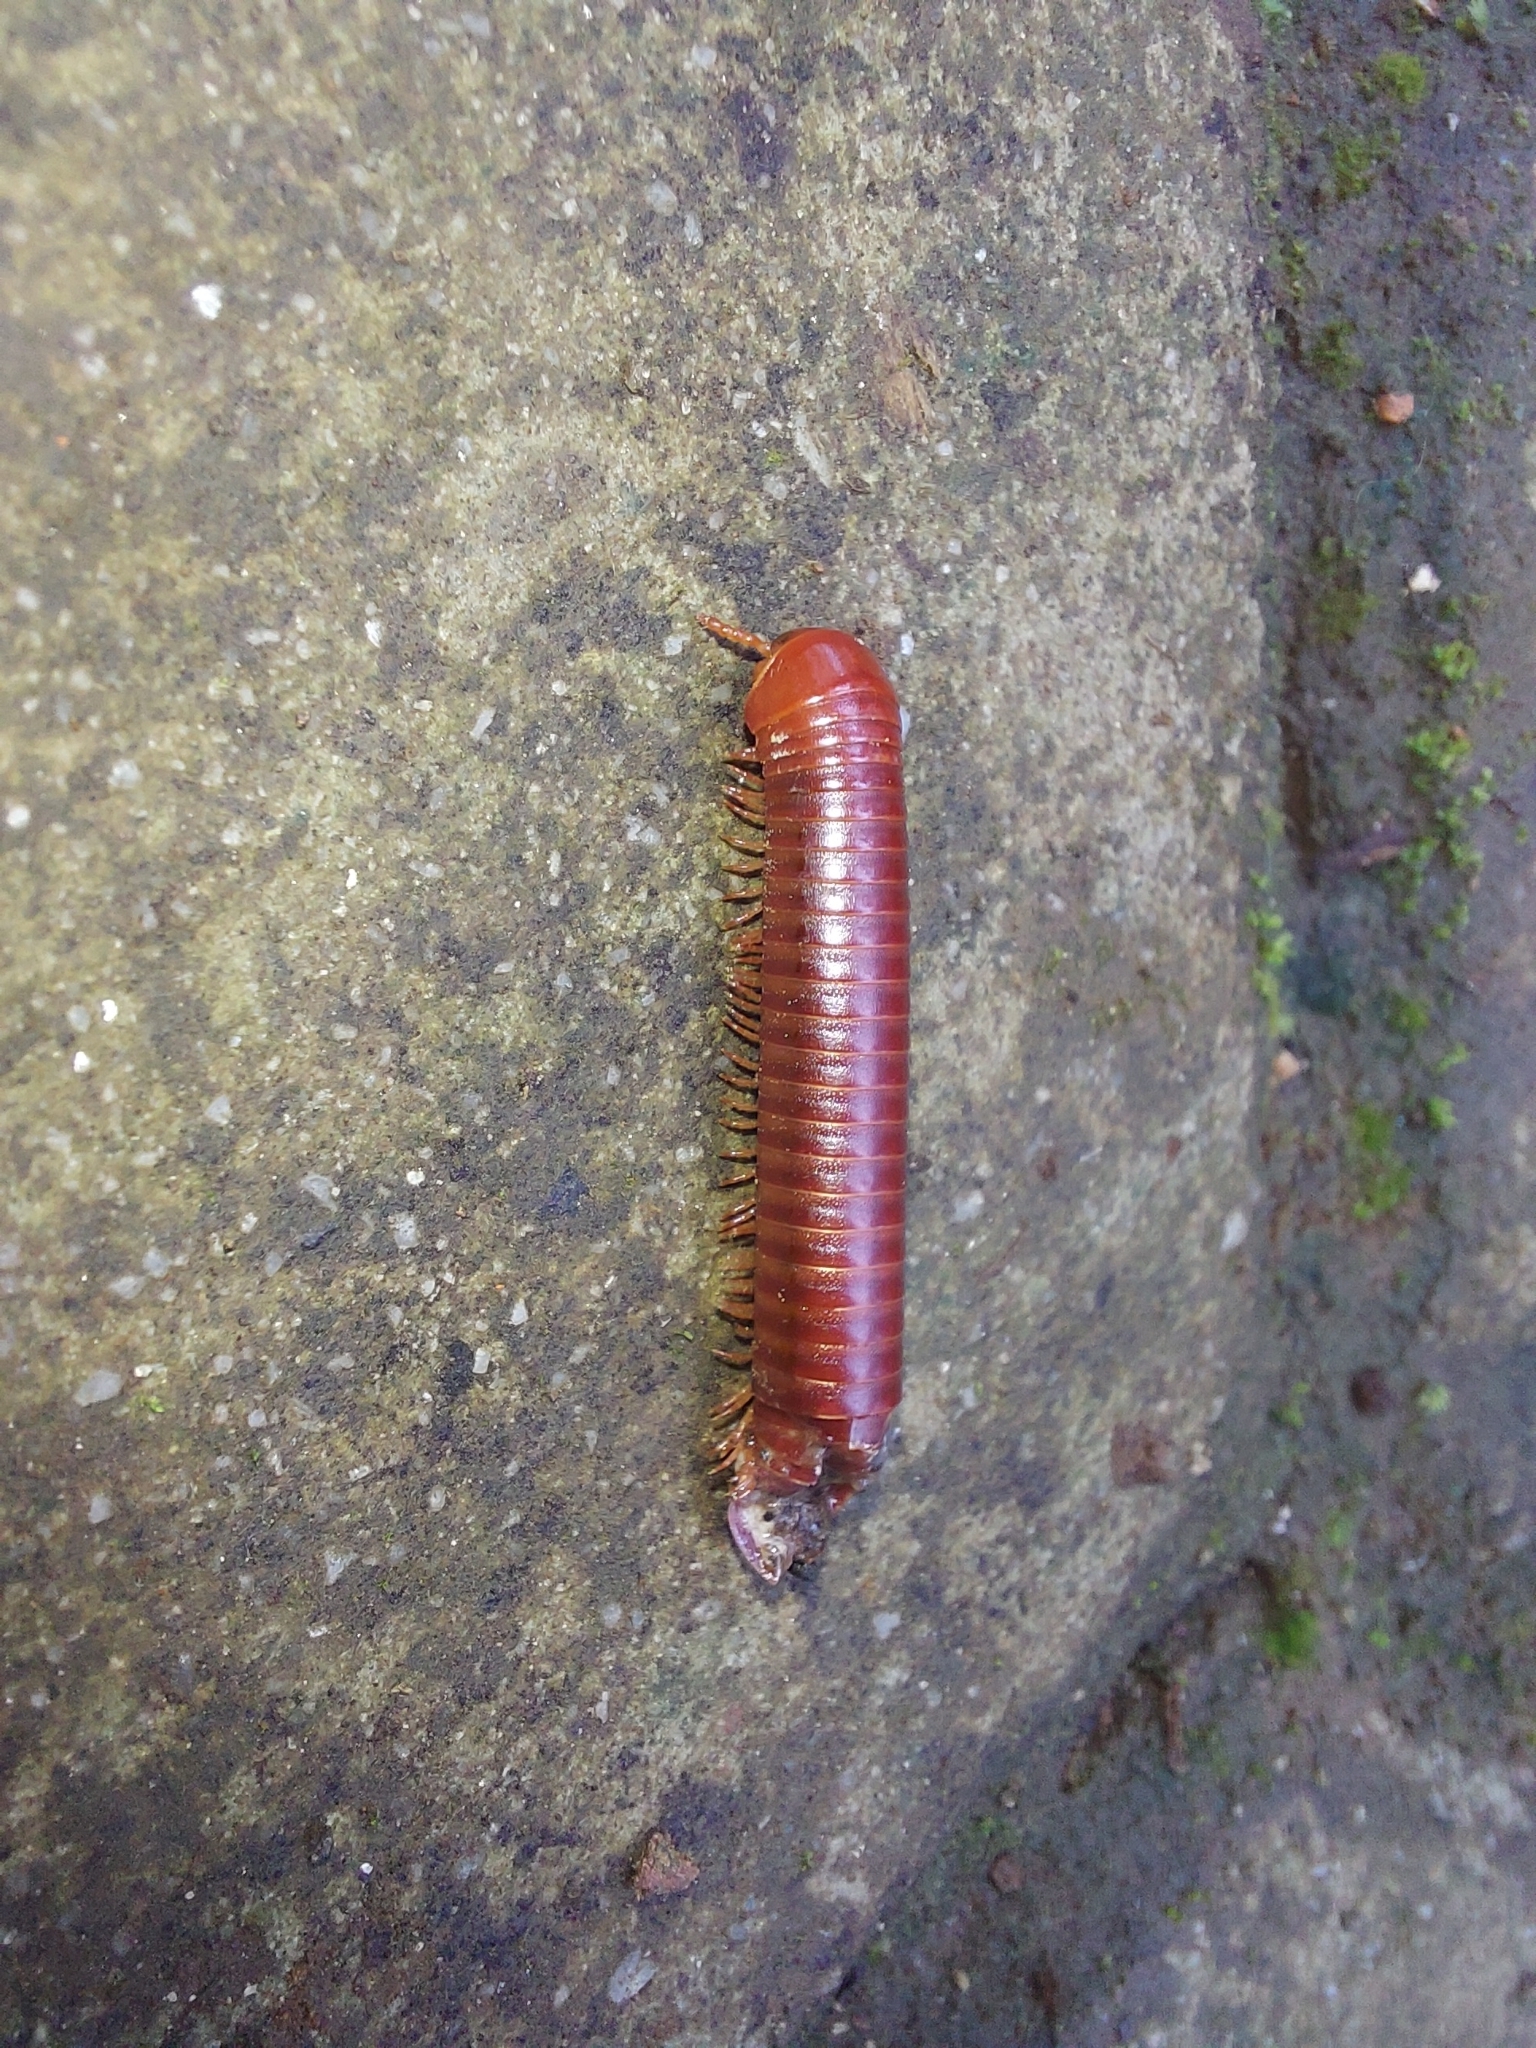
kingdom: Animalia
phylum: Arthropoda
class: Diplopoda
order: Spirobolida
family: Pachybolidae
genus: Trigoniulus
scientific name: Trigoniulus corallinus
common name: Millipede
